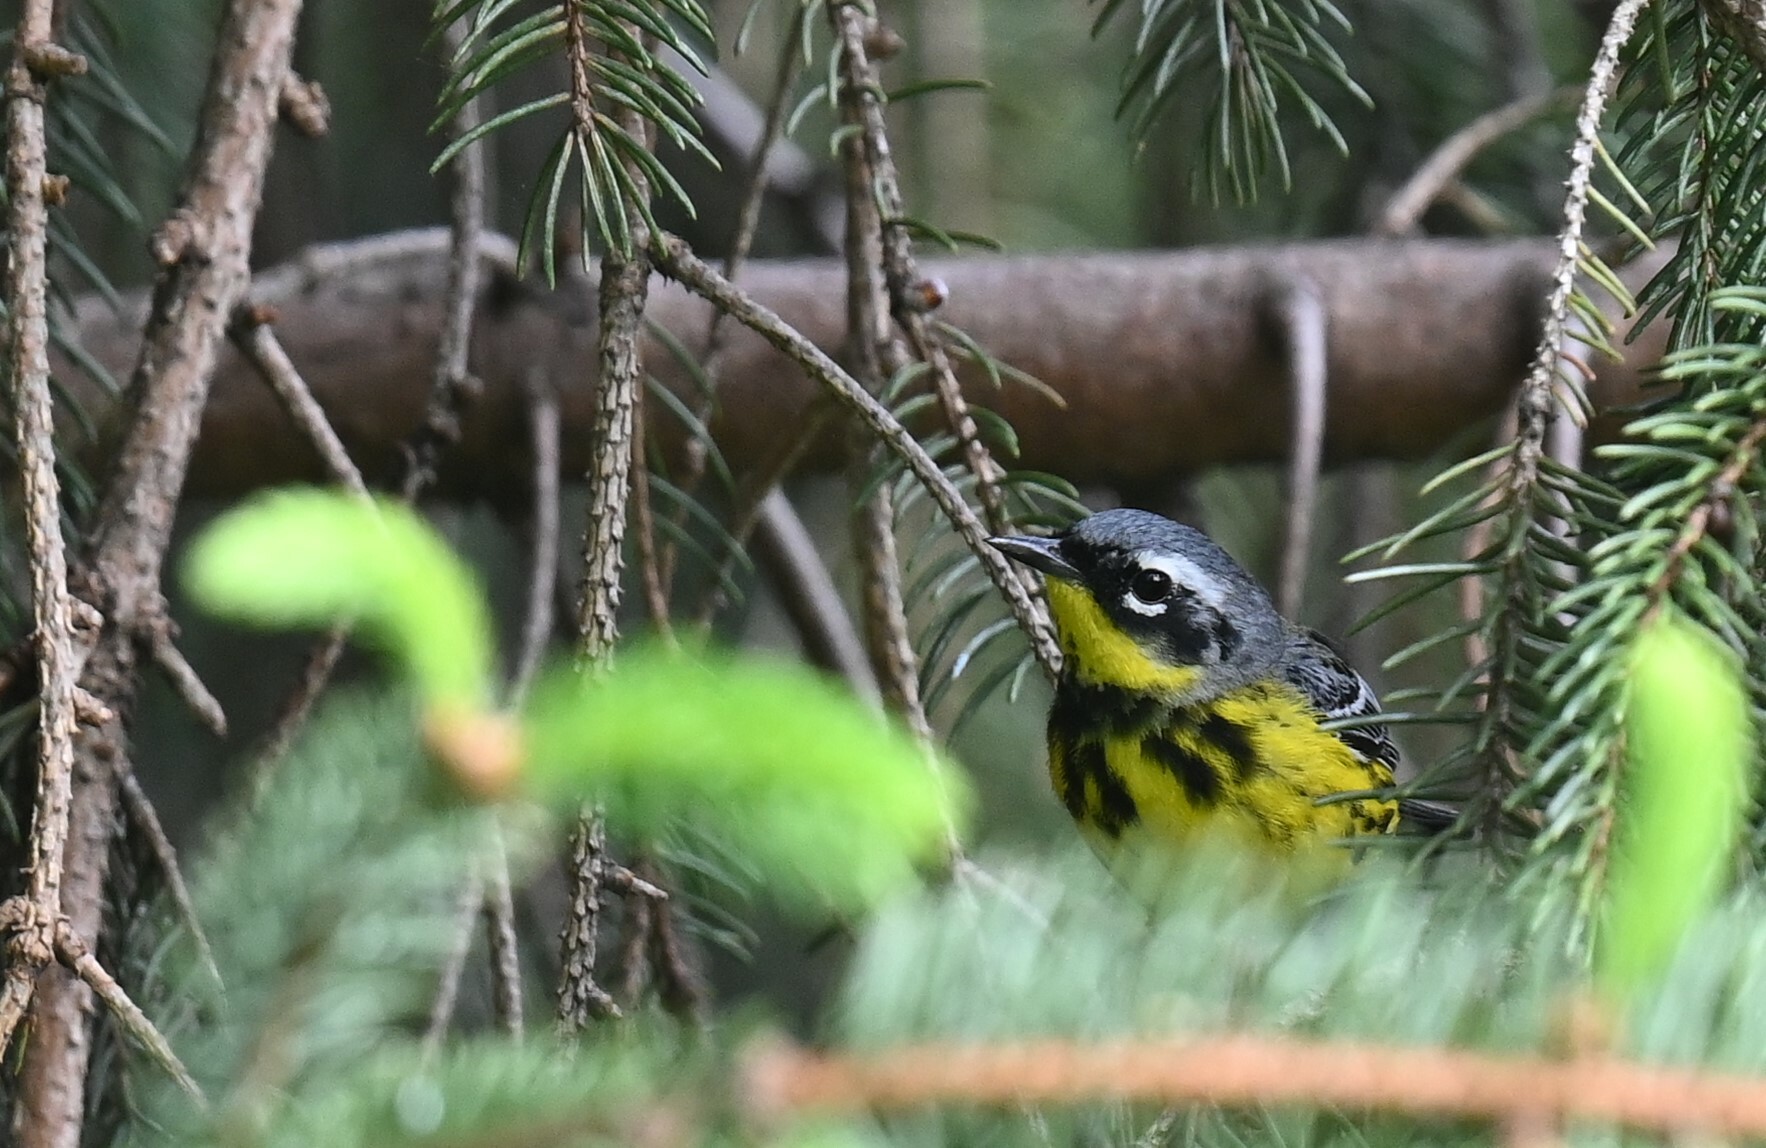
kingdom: Animalia
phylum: Chordata
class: Aves
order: Passeriformes
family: Parulidae
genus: Setophaga
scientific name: Setophaga magnolia
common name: Magnolia warbler
